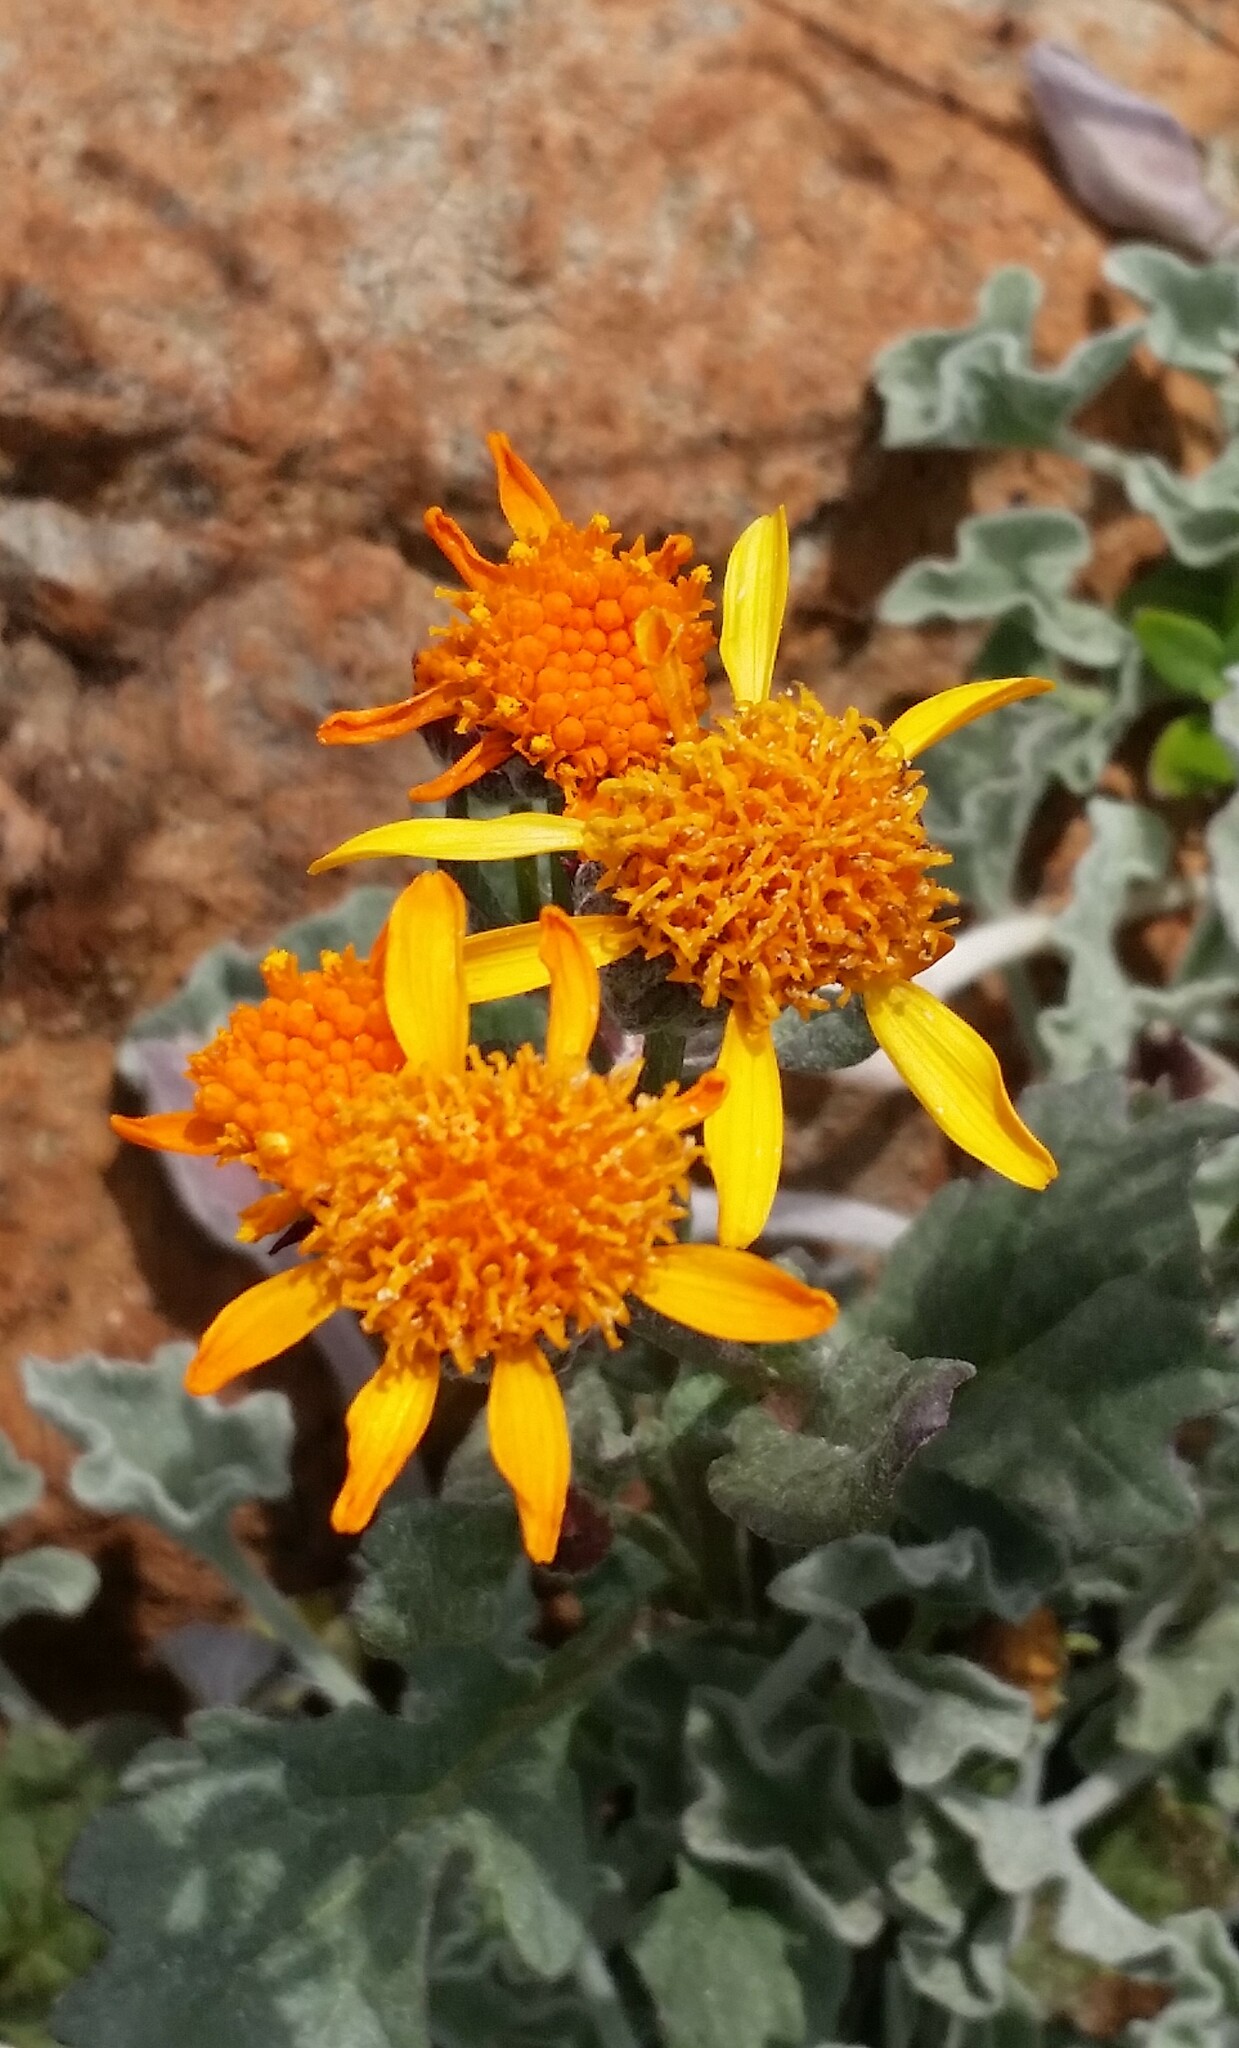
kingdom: Plantae
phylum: Tracheophyta
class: Magnoliopsida
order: Asterales
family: Asteraceae
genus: Packera
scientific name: Packera greenei
